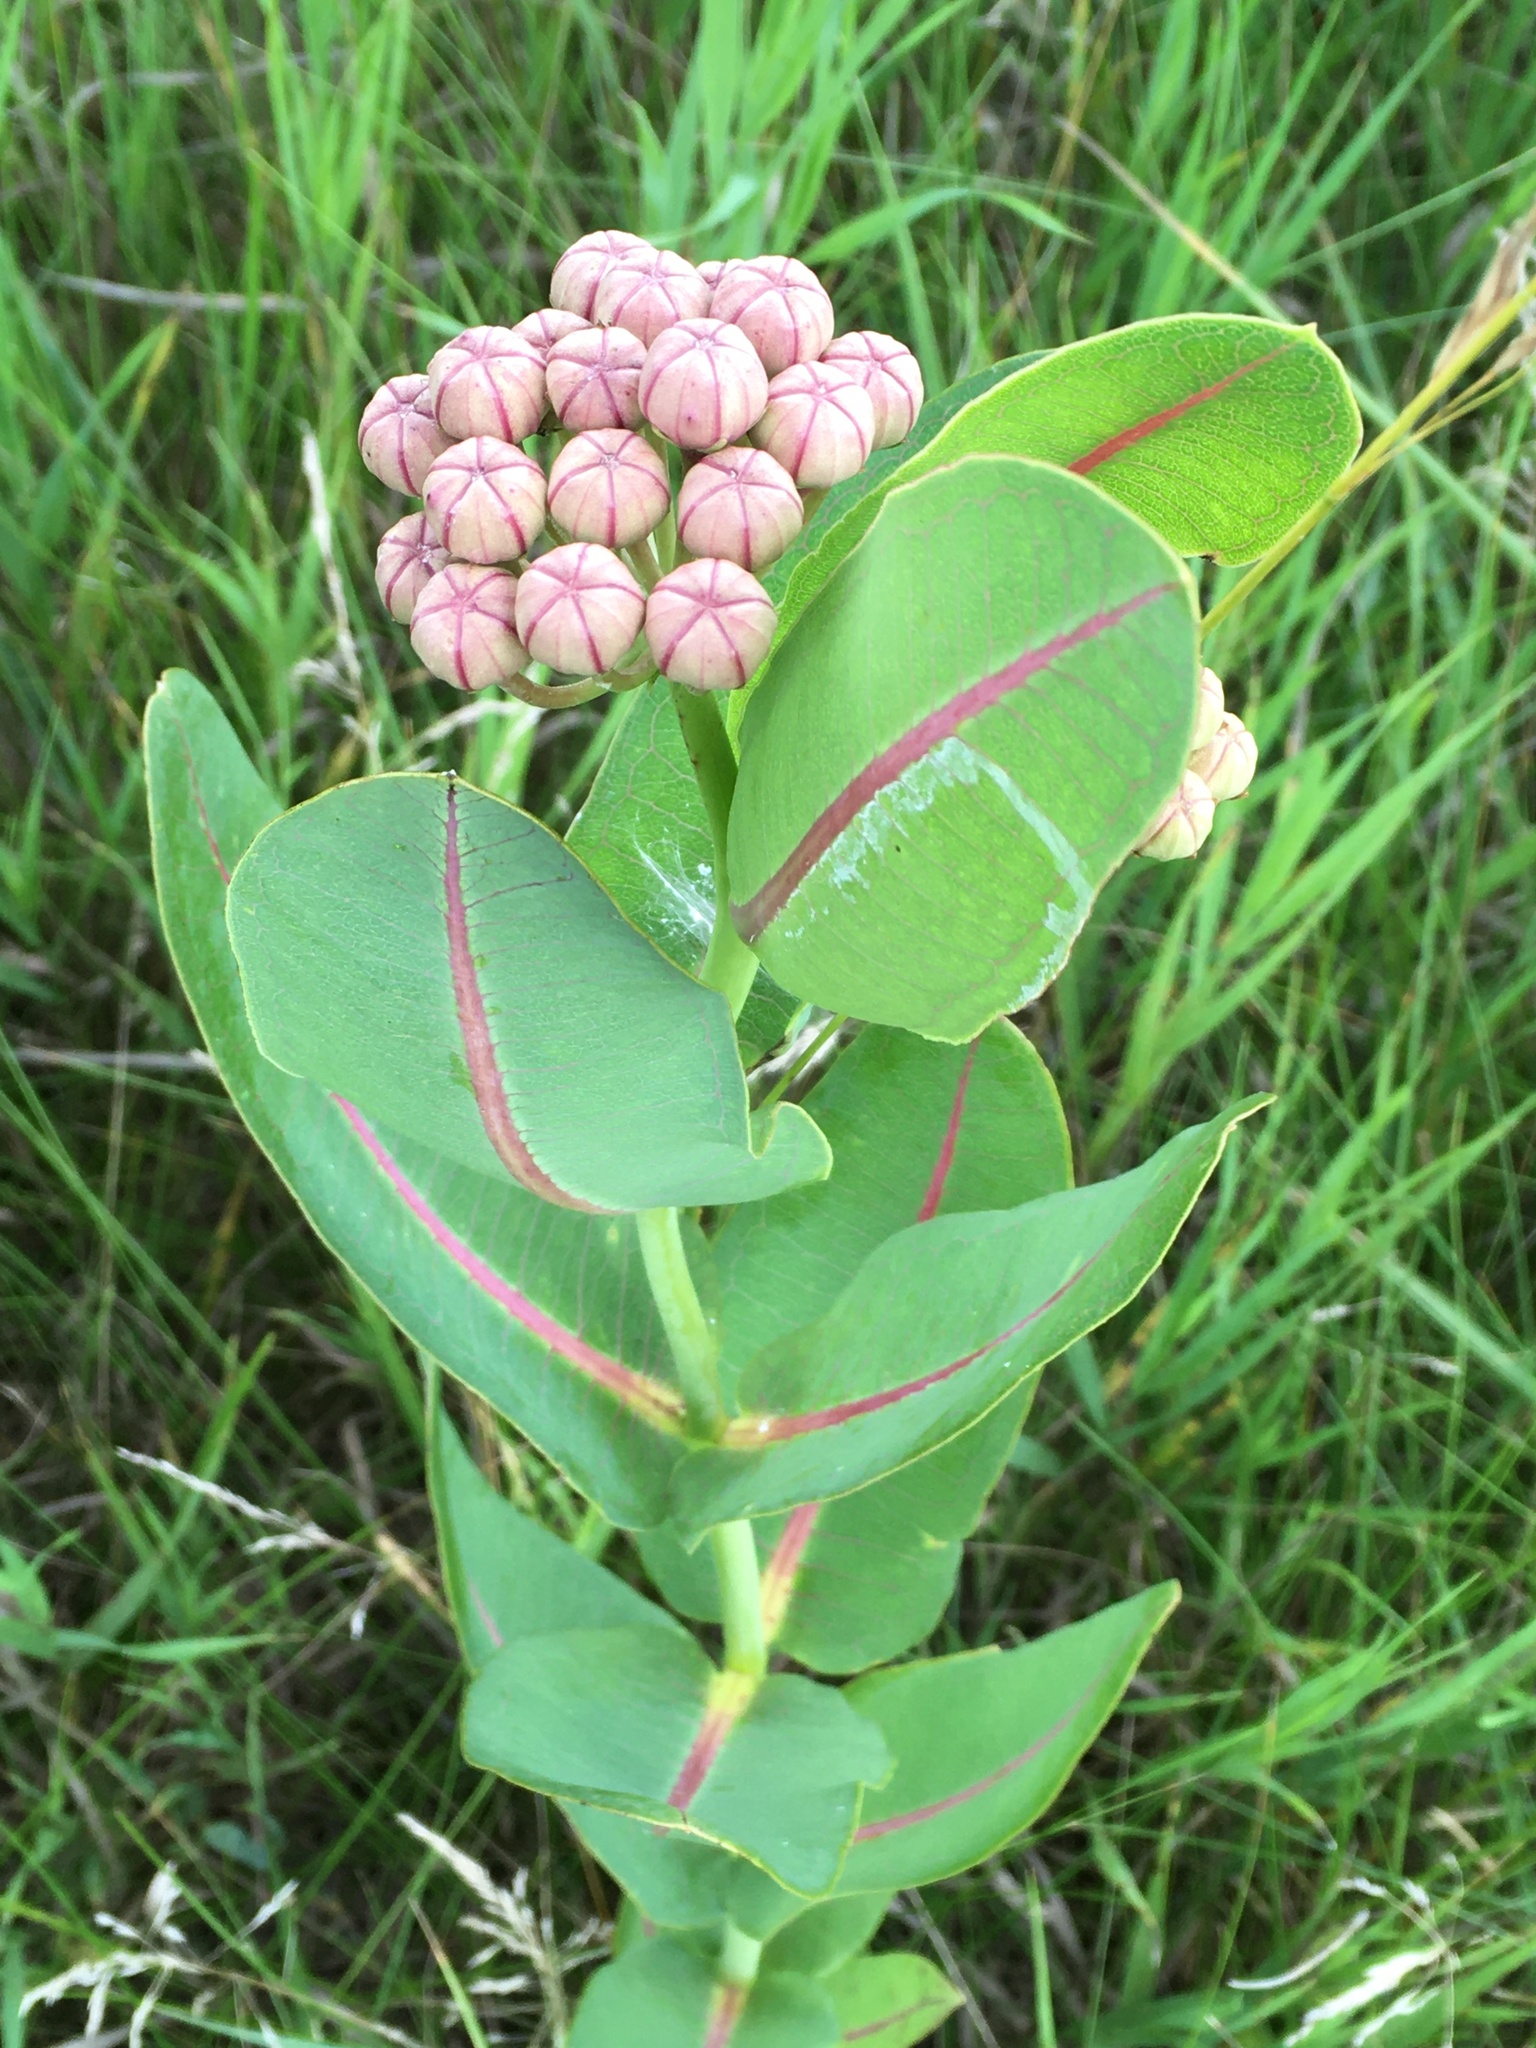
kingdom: Plantae
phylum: Tracheophyta
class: Magnoliopsida
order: Gentianales
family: Apocynaceae
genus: Asclepias
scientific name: Asclepias sullivantii
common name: Prairie milkweed
